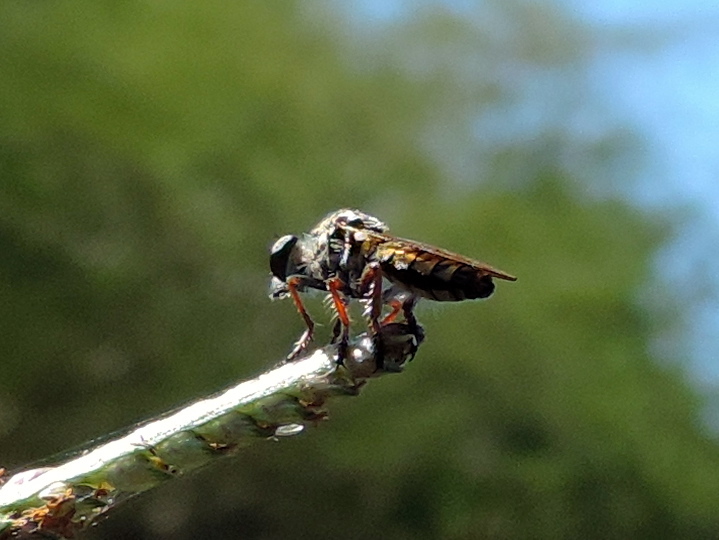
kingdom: Animalia
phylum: Arthropoda
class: Insecta
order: Diptera
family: Asilidae
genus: Heteropogon
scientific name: Heteropogon
